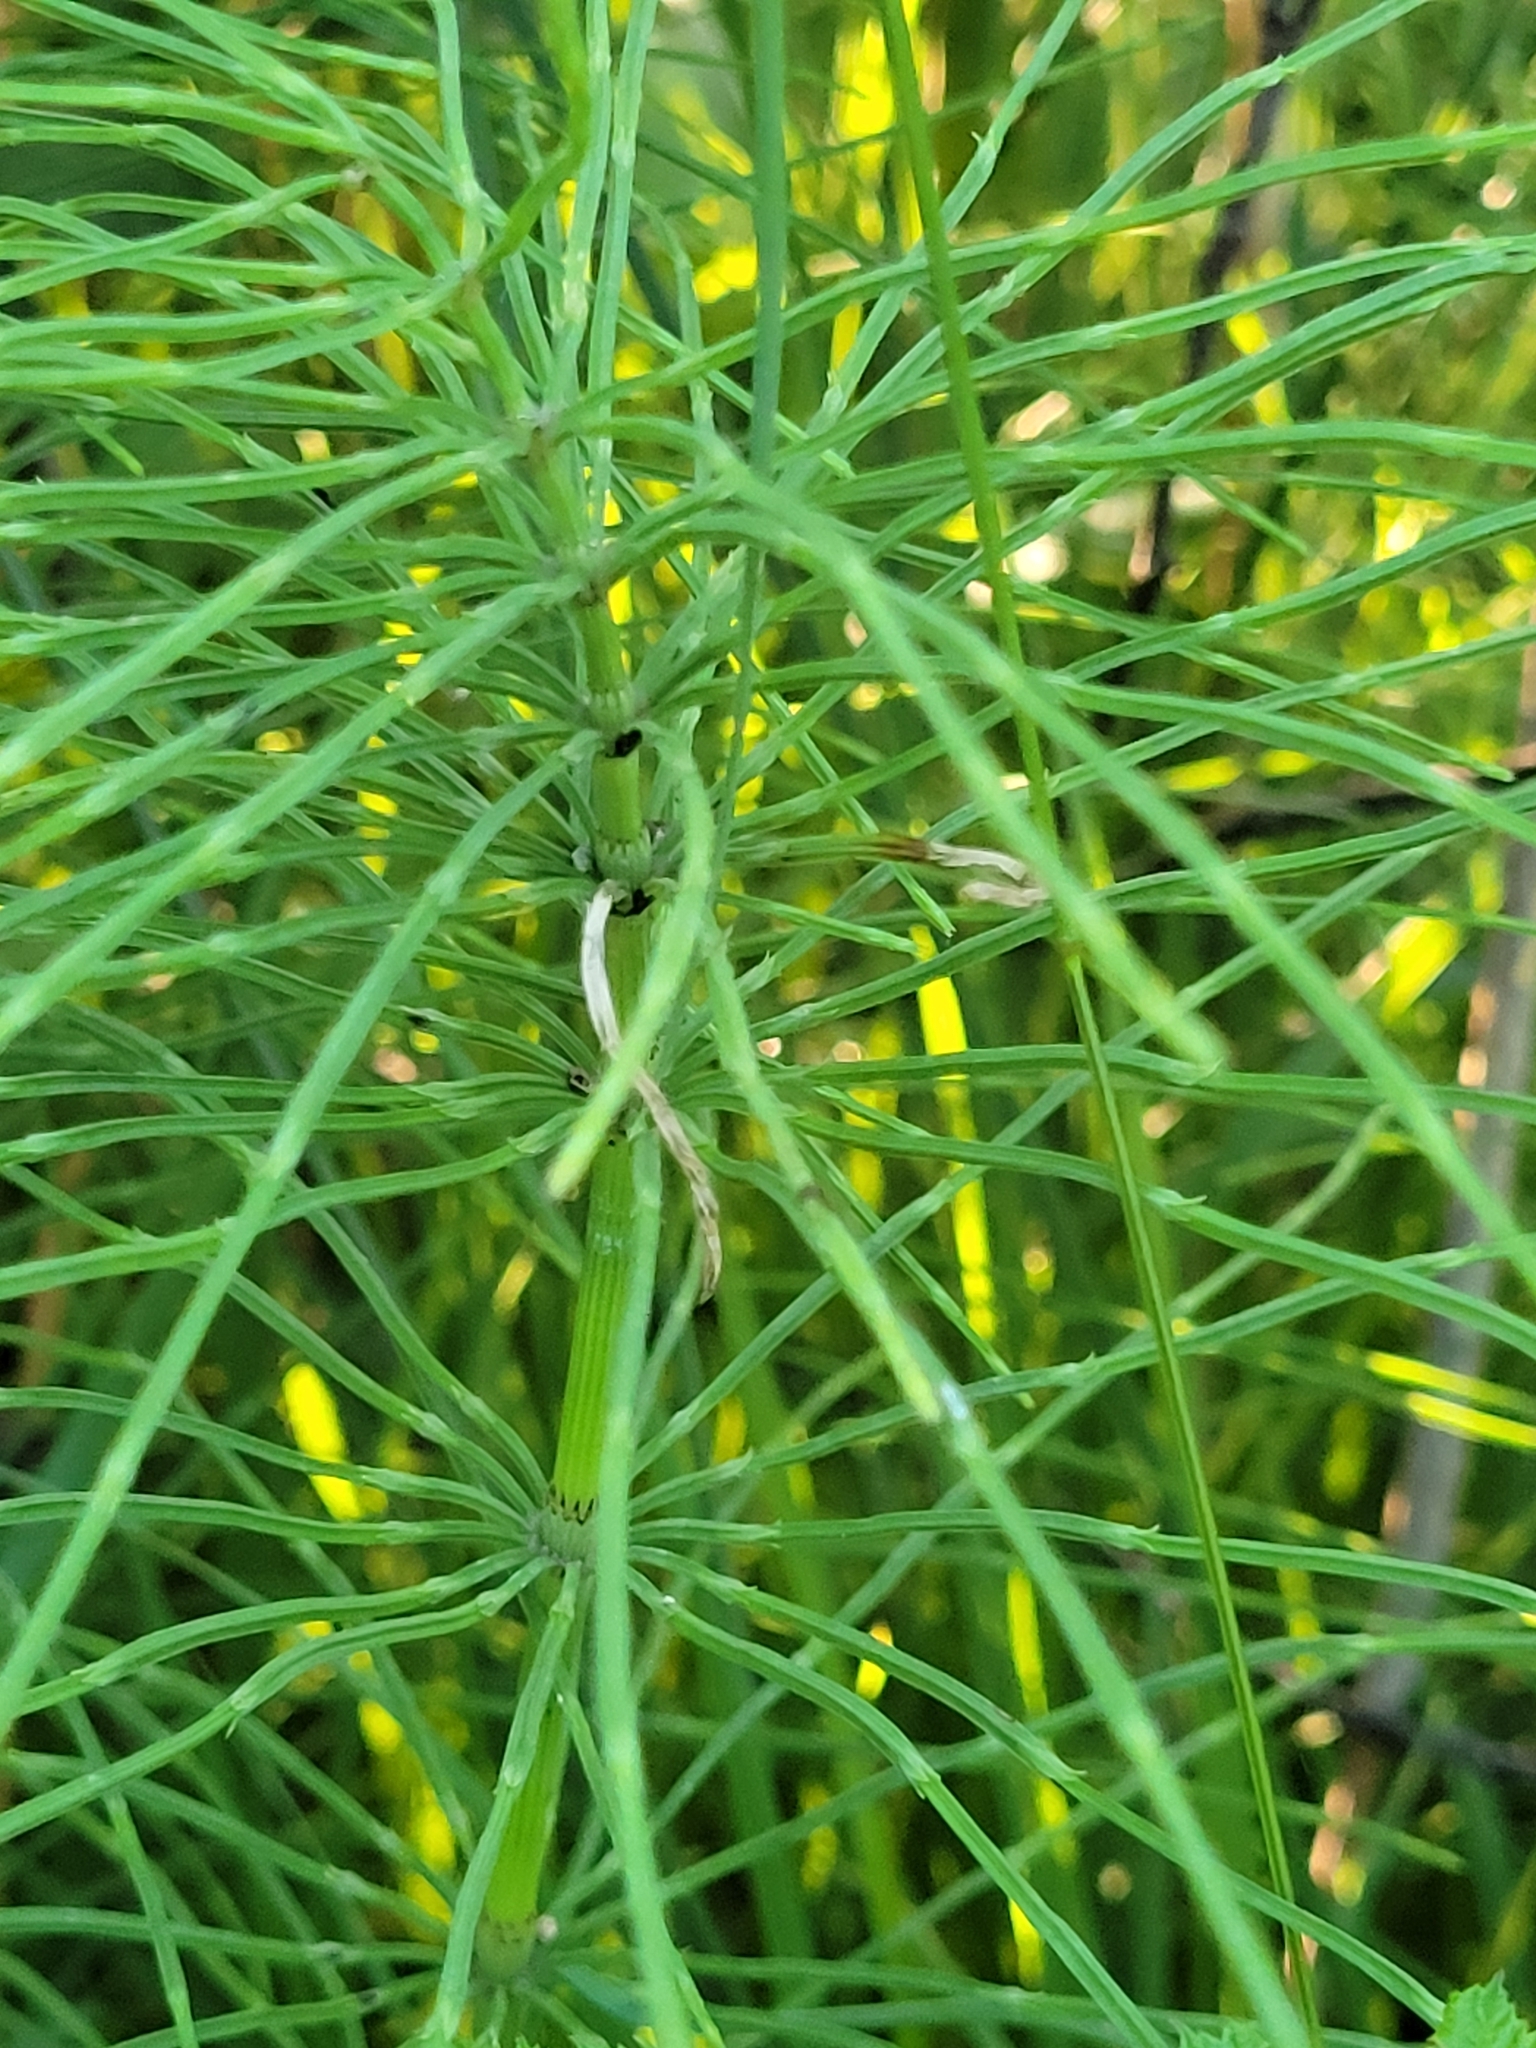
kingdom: Plantae
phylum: Tracheophyta
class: Polypodiopsida
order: Equisetales
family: Equisetaceae
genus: Equisetum
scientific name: Equisetum arvense
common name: Field horsetail
